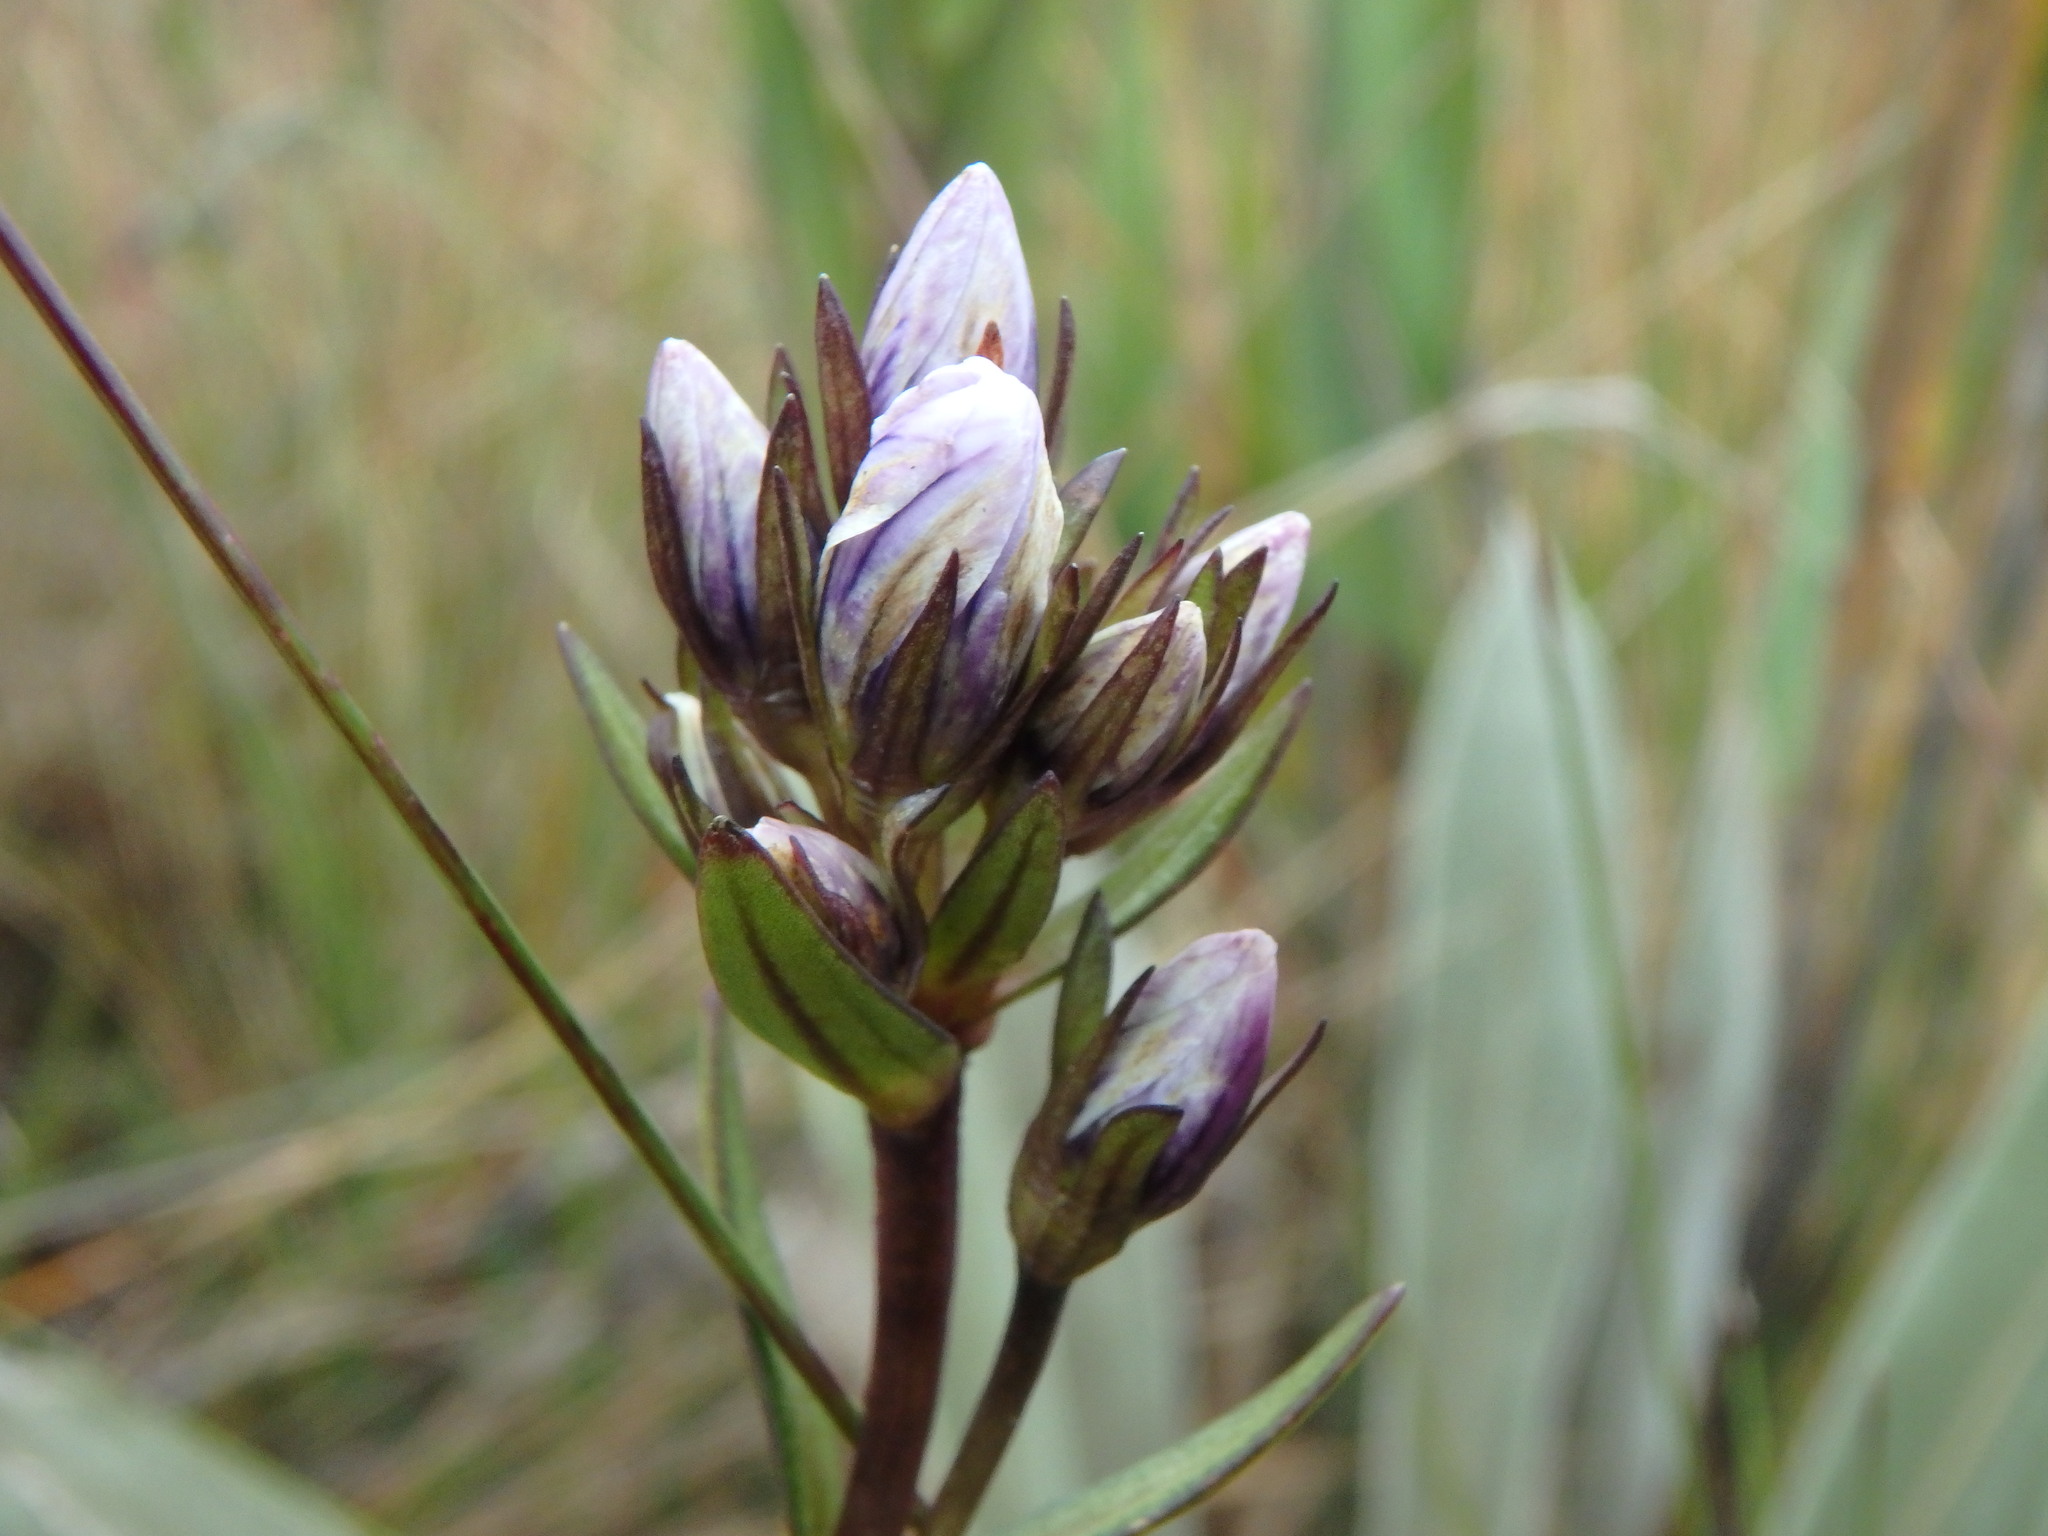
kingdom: Plantae
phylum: Tracheophyta
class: Magnoliopsida
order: Gentianales
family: Gentianaceae
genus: Gentianella
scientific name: Gentianella corymbosa
